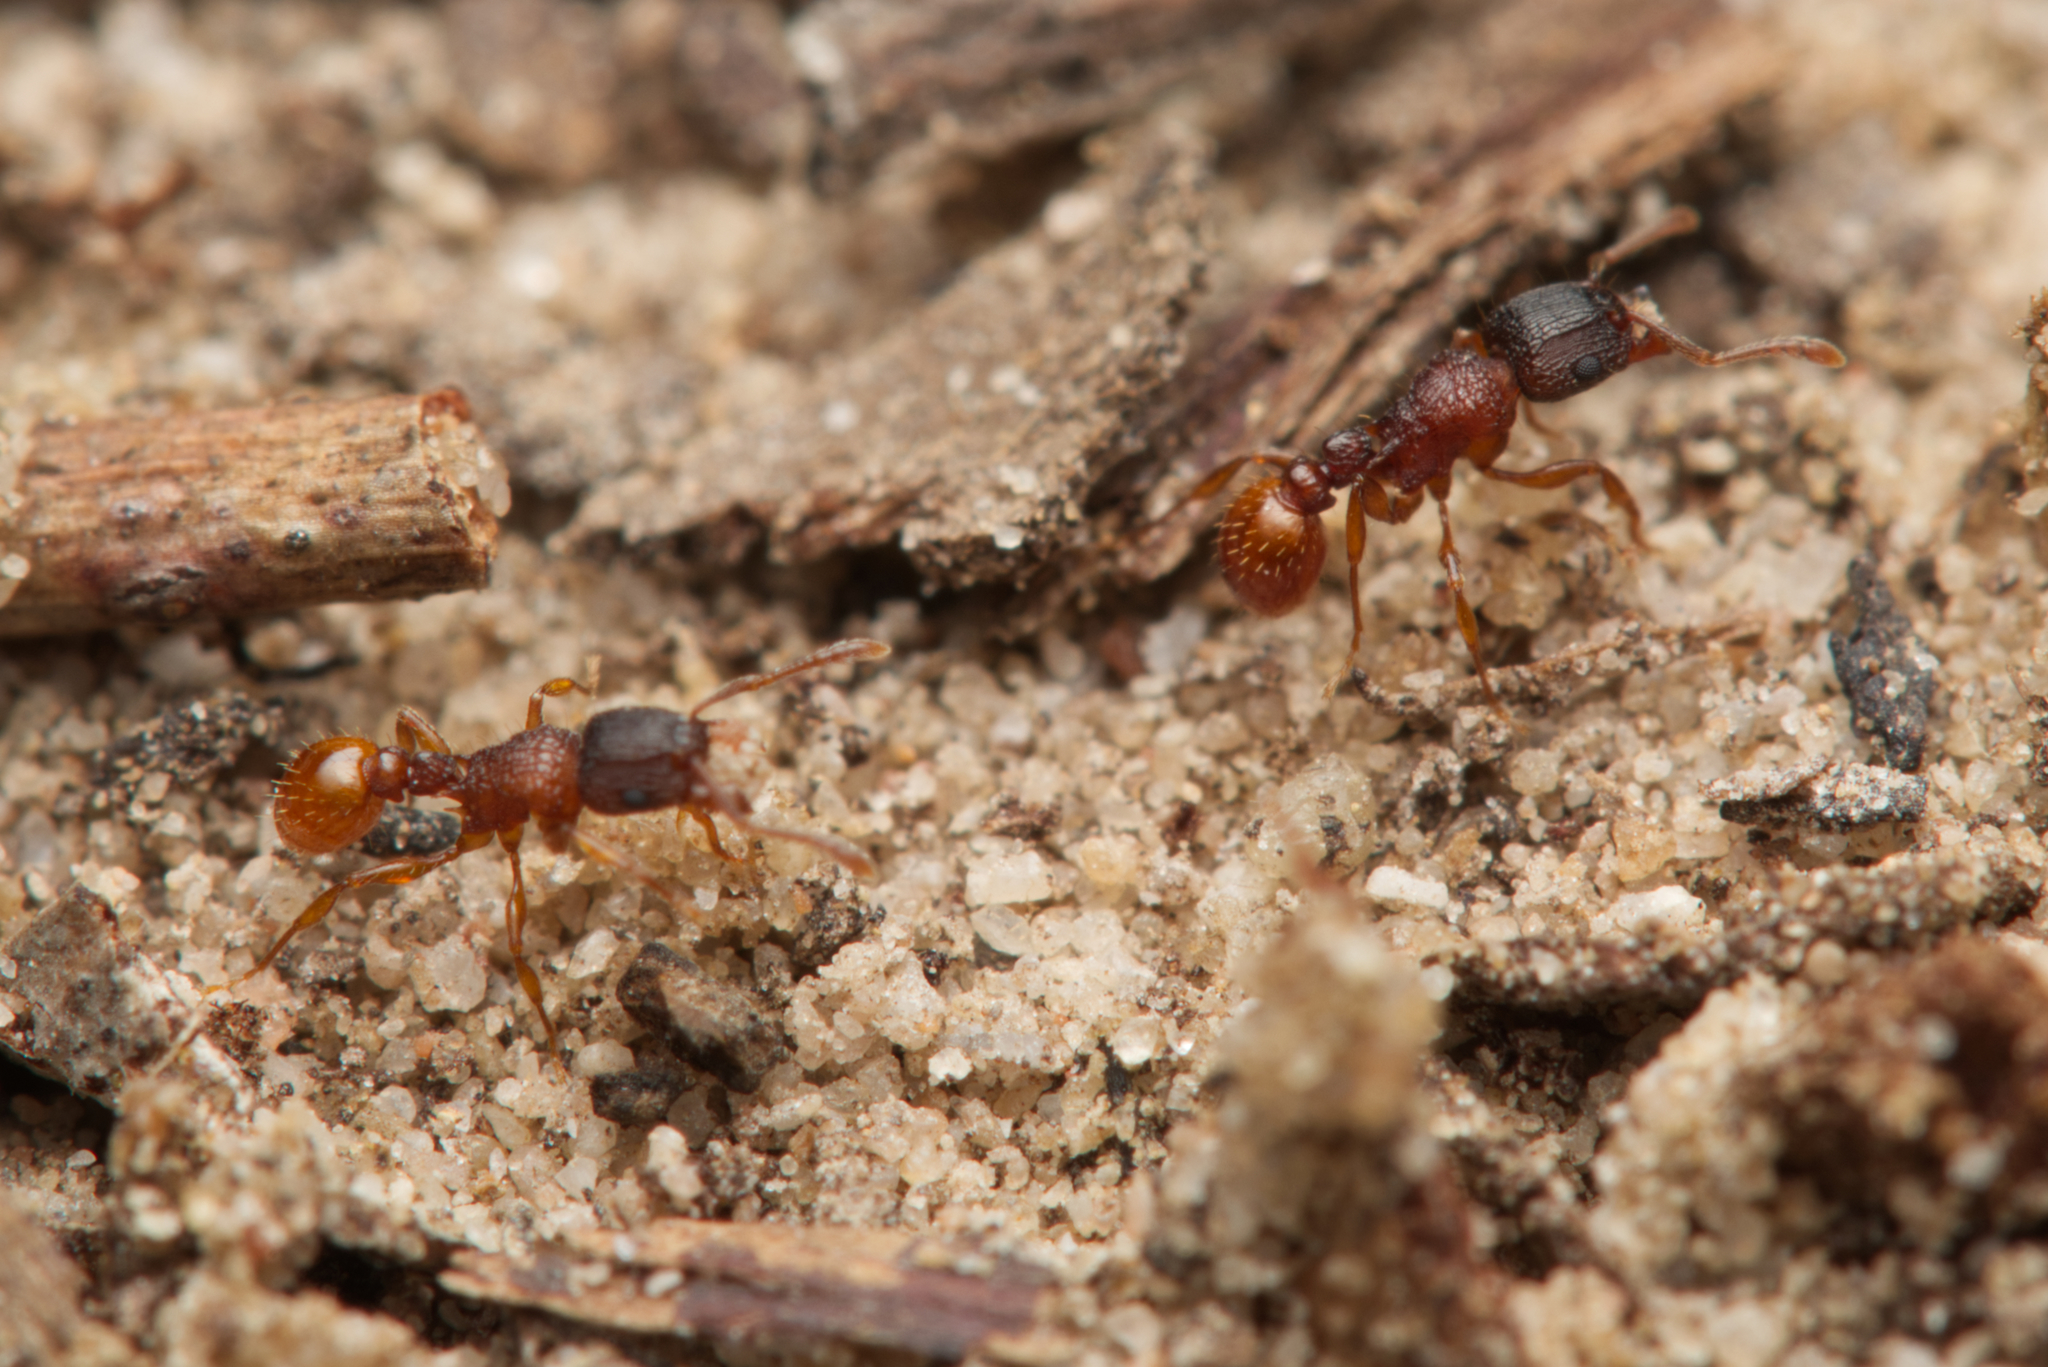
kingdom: Animalia
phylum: Arthropoda
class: Insecta
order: Hymenoptera
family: Formicidae
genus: Tetramorium
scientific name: Tetramorium fuscipes
